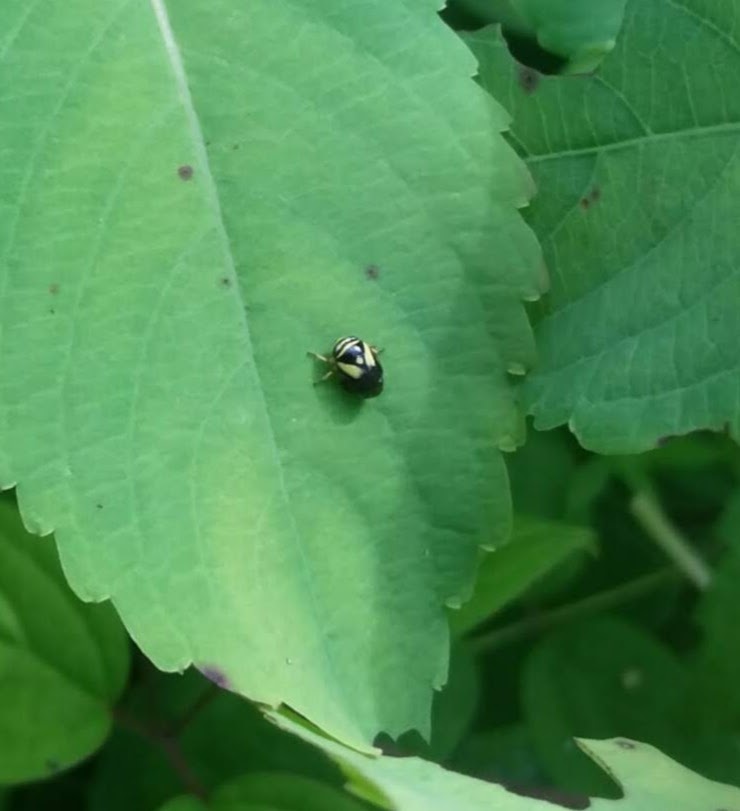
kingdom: Animalia
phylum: Arthropoda
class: Insecta
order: Hemiptera
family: Clastopteridae
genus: Clastoptera
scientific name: Clastoptera proteus
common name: Dogwood spittlebug
